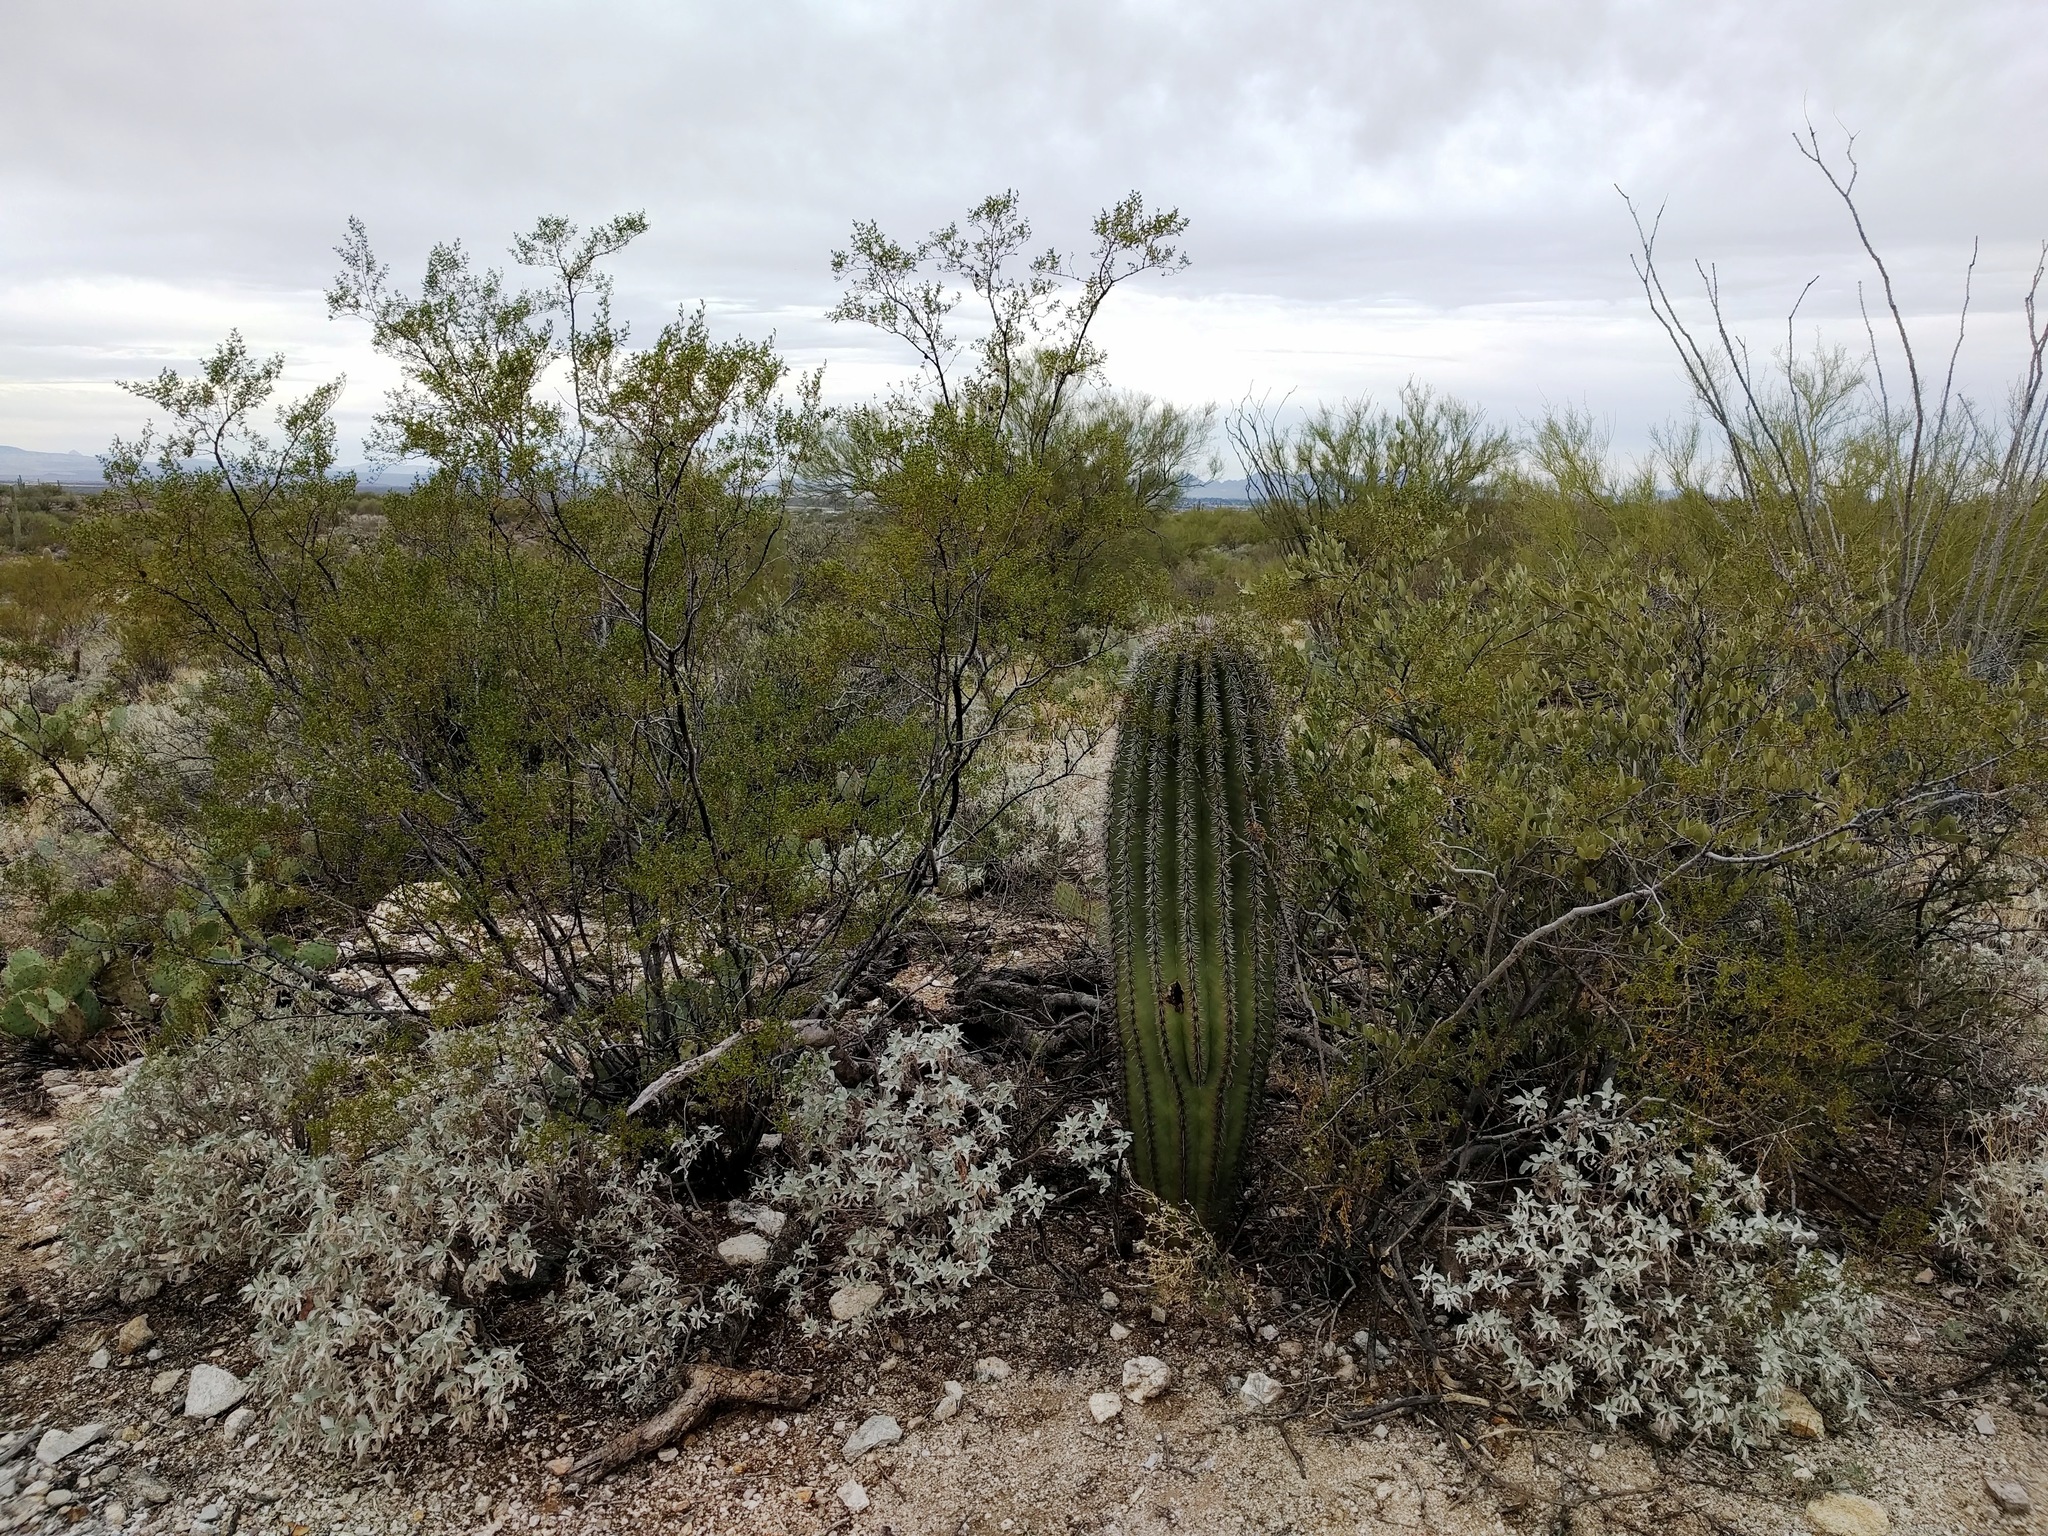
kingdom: Plantae
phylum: Tracheophyta
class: Magnoliopsida
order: Caryophyllales
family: Cactaceae
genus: Carnegiea
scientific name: Carnegiea gigantea
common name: Saguaro
